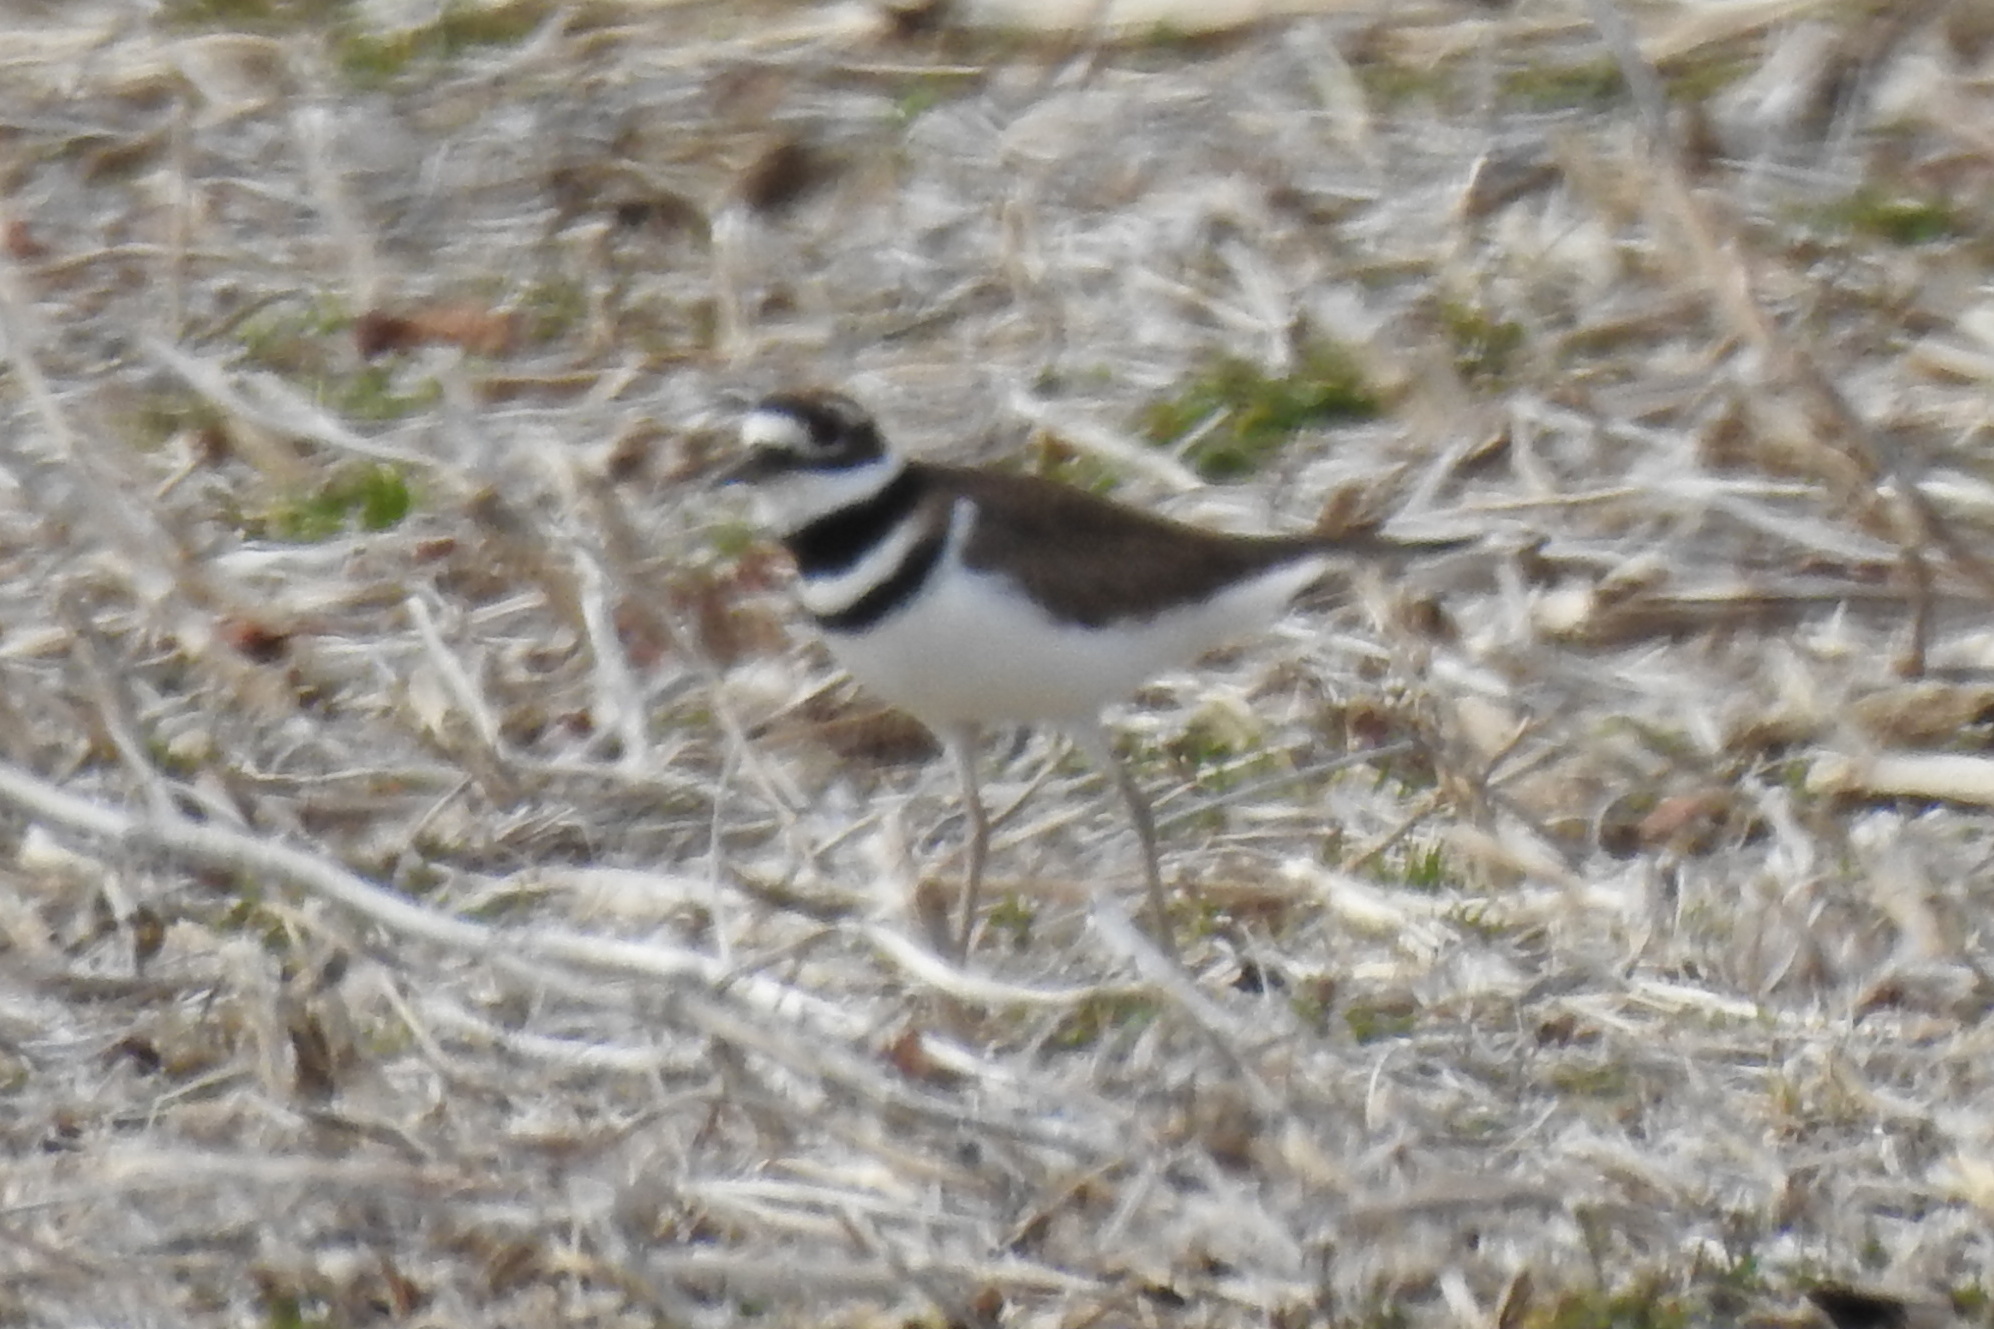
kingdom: Animalia
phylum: Chordata
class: Aves
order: Charadriiformes
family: Charadriidae
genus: Charadrius
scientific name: Charadrius vociferus
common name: Killdeer
